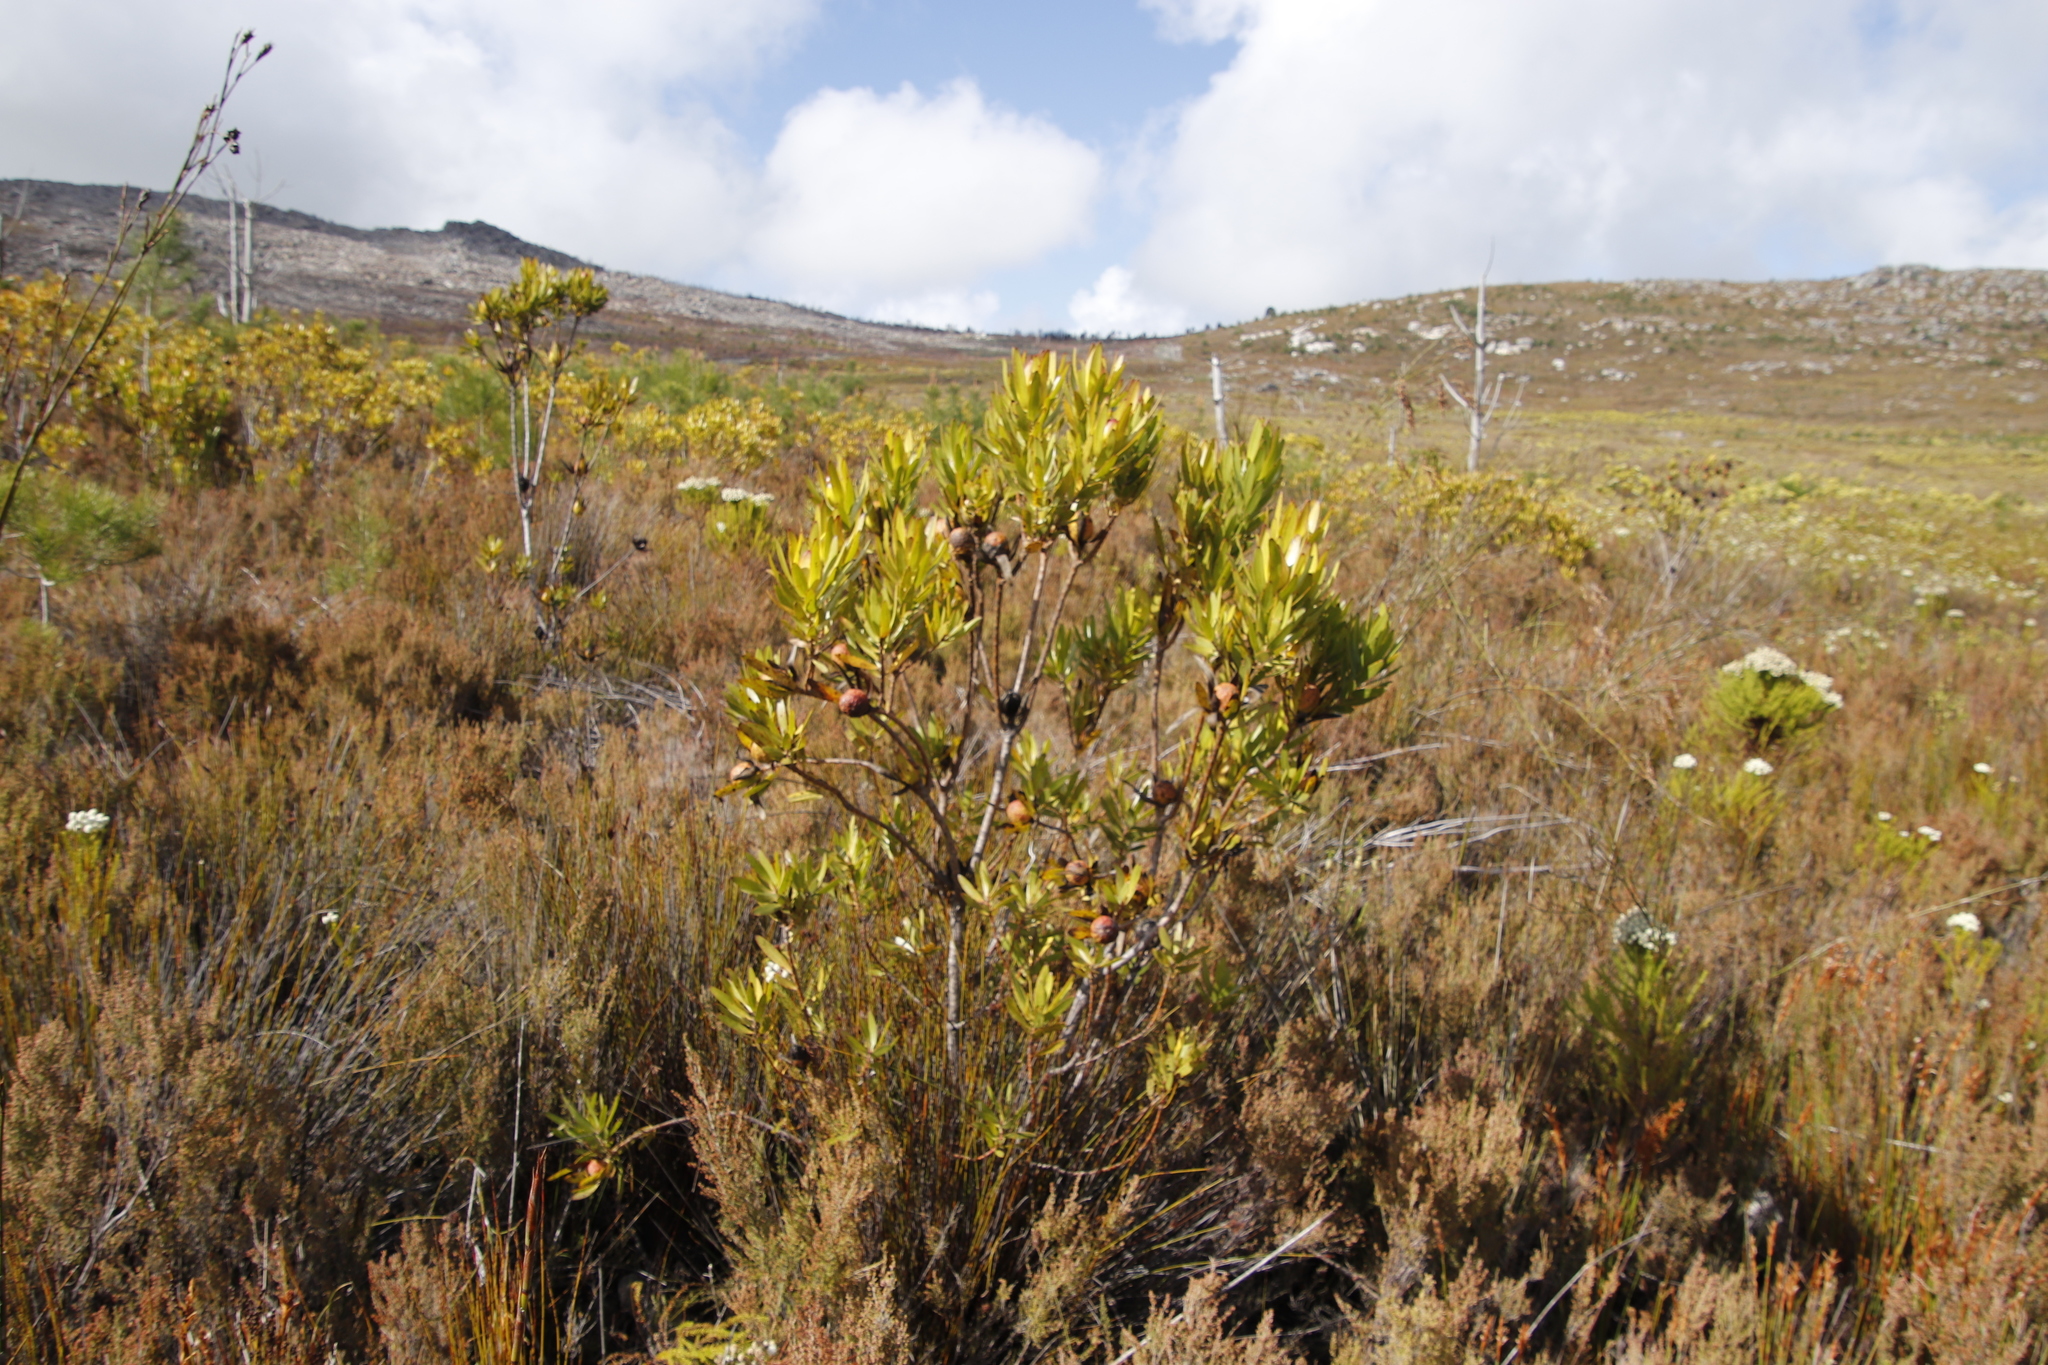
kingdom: Plantae
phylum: Tracheophyta
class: Magnoliopsida
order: Proteales
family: Proteaceae
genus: Leucadendron
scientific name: Leucadendron laureolum
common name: Golden sunshinebush
